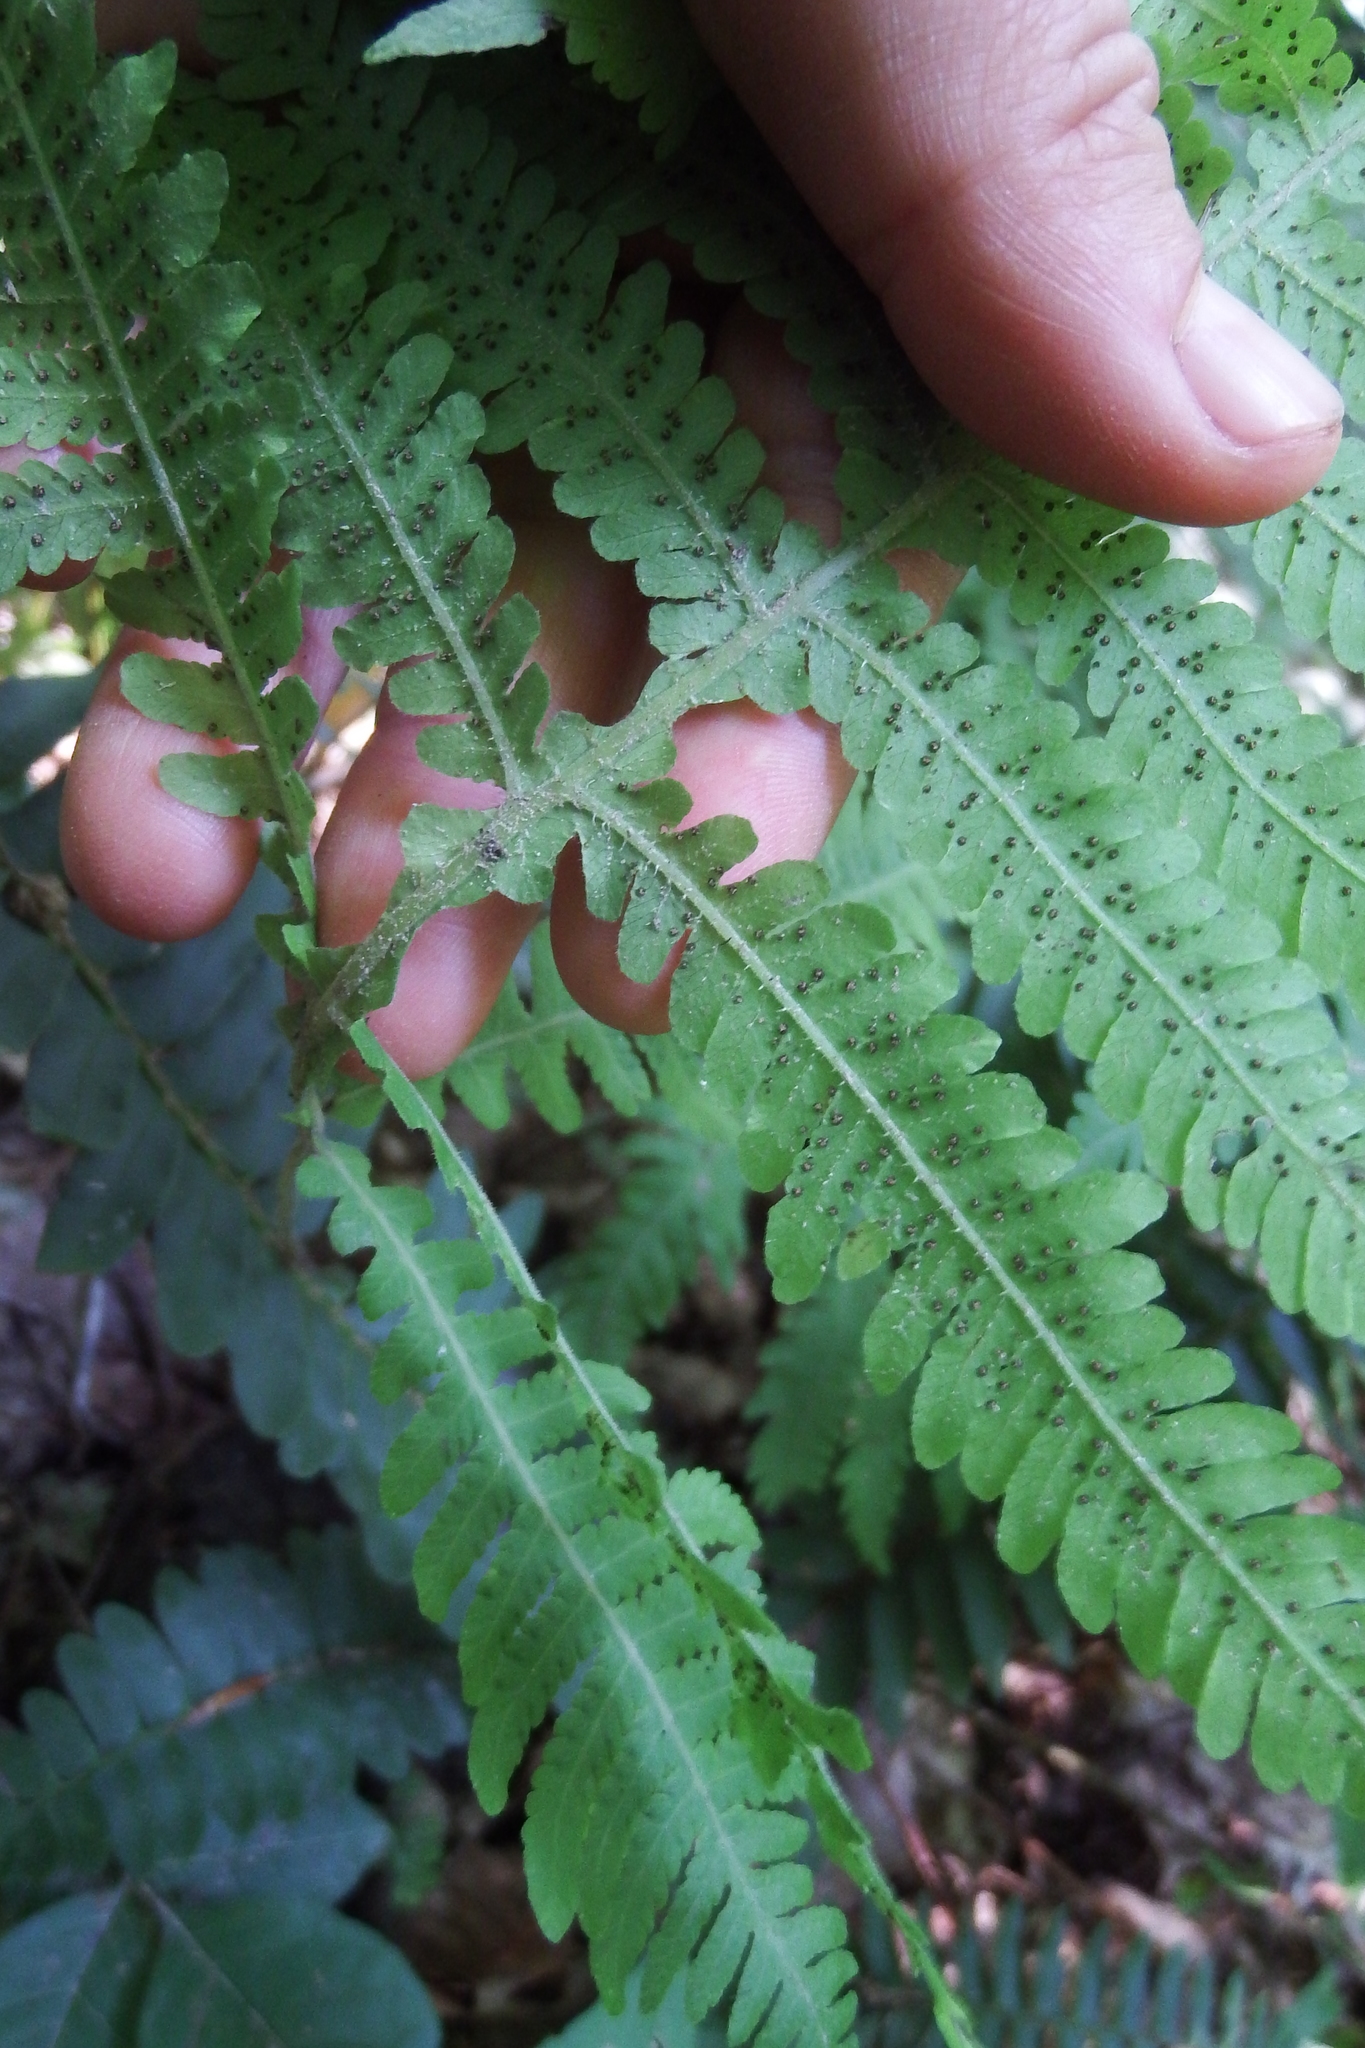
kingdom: Plantae
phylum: Tracheophyta
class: Polypodiopsida
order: Polypodiales
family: Thelypteridaceae
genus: Phegopteris
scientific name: Phegopteris hexagonoptera
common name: Broad beech fern
